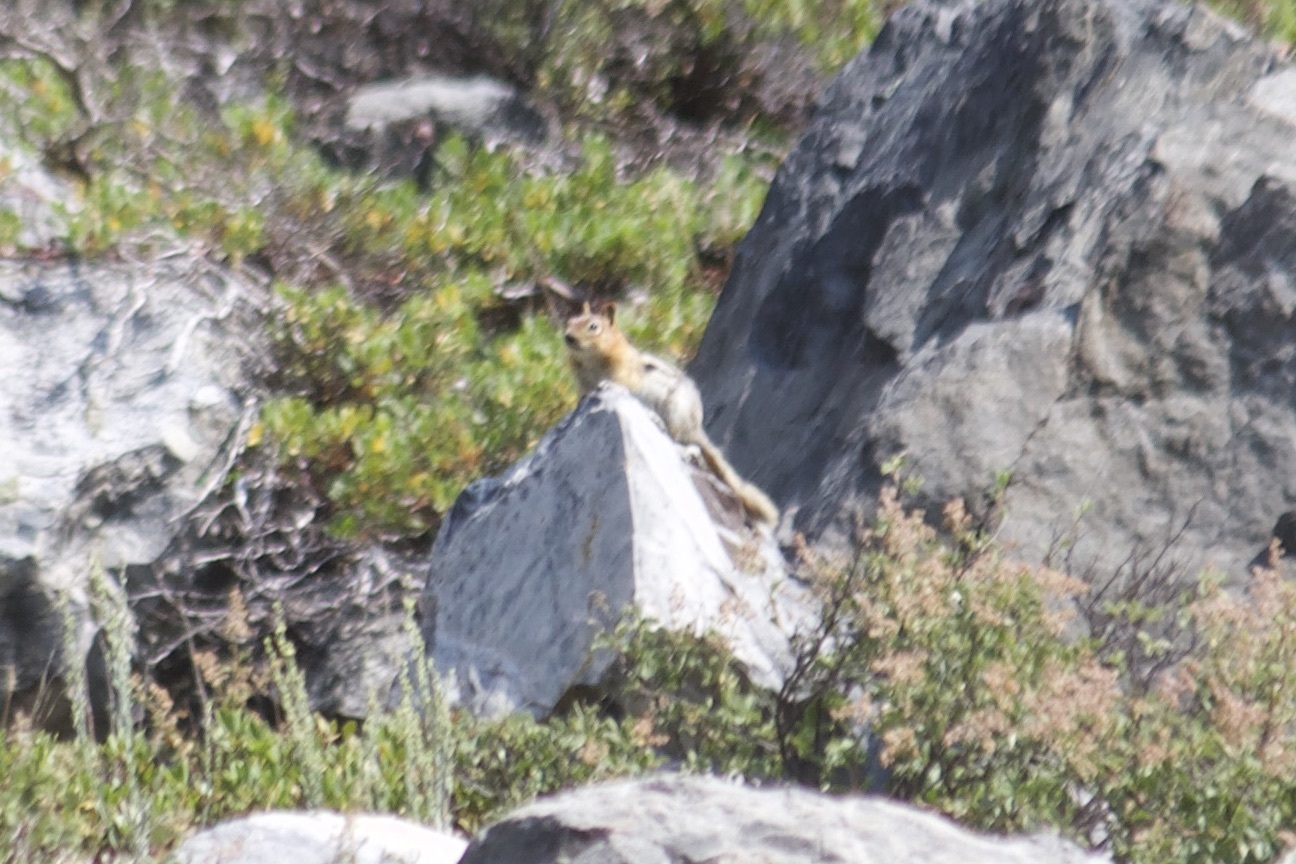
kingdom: Animalia
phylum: Chordata
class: Mammalia
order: Rodentia
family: Sciuridae
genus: Callospermophilus
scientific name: Callospermophilus lateralis
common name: Golden-mantled ground squirrel
